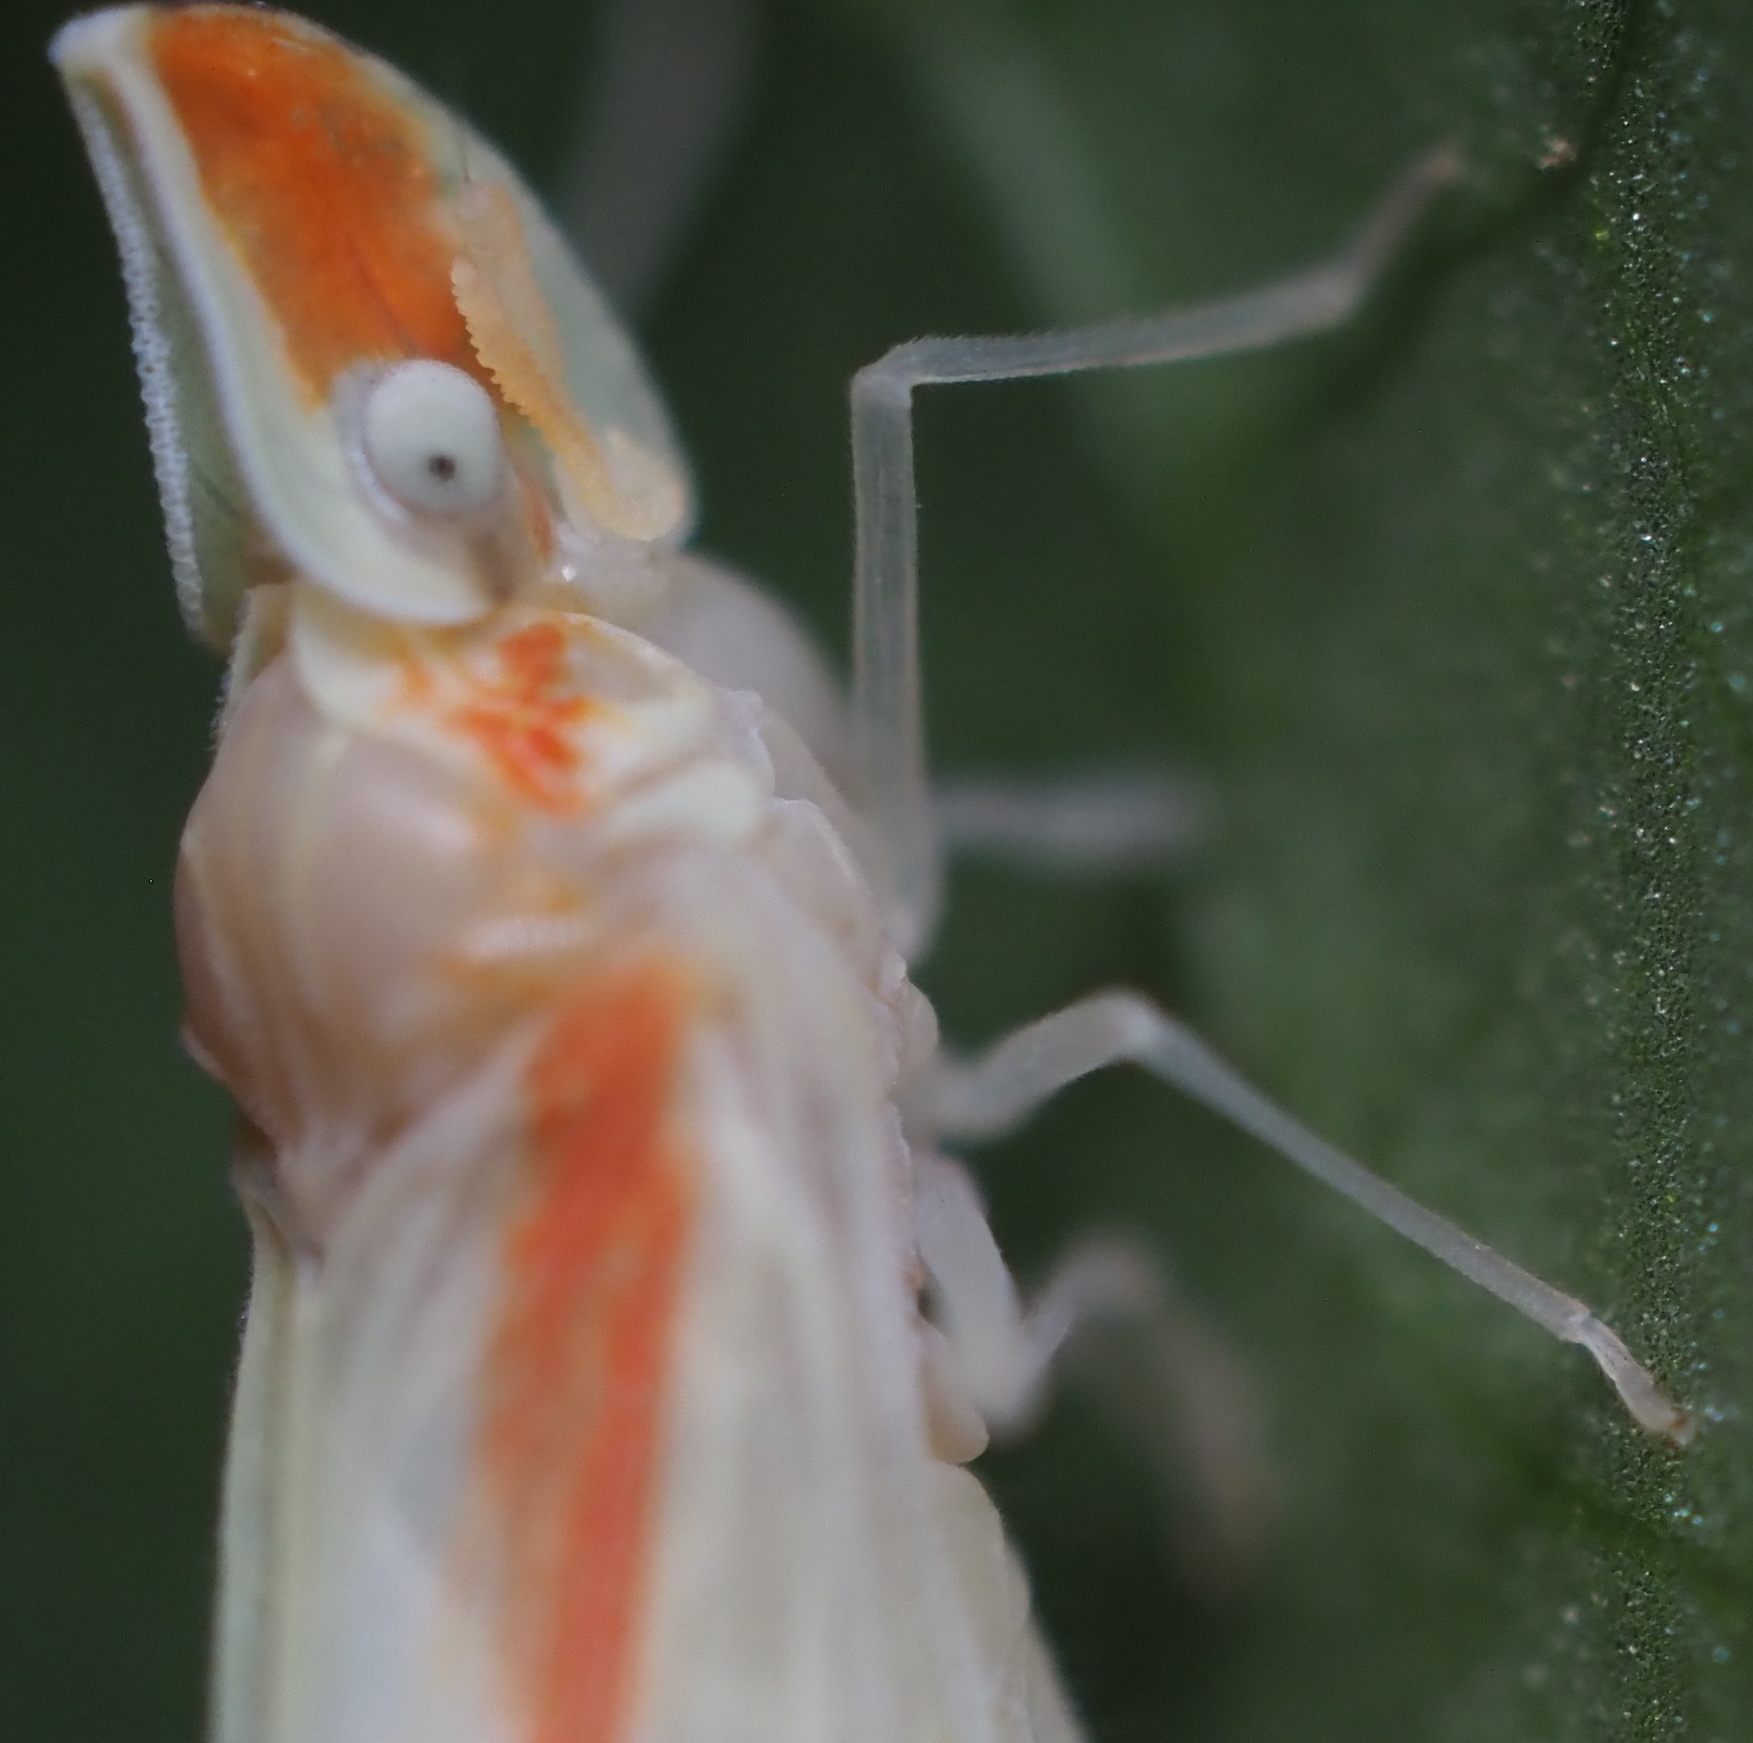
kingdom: Animalia
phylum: Arthropoda
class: Insecta
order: Hemiptera
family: Derbidae
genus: Otiocerus
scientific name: Otiocerus coquebertii
